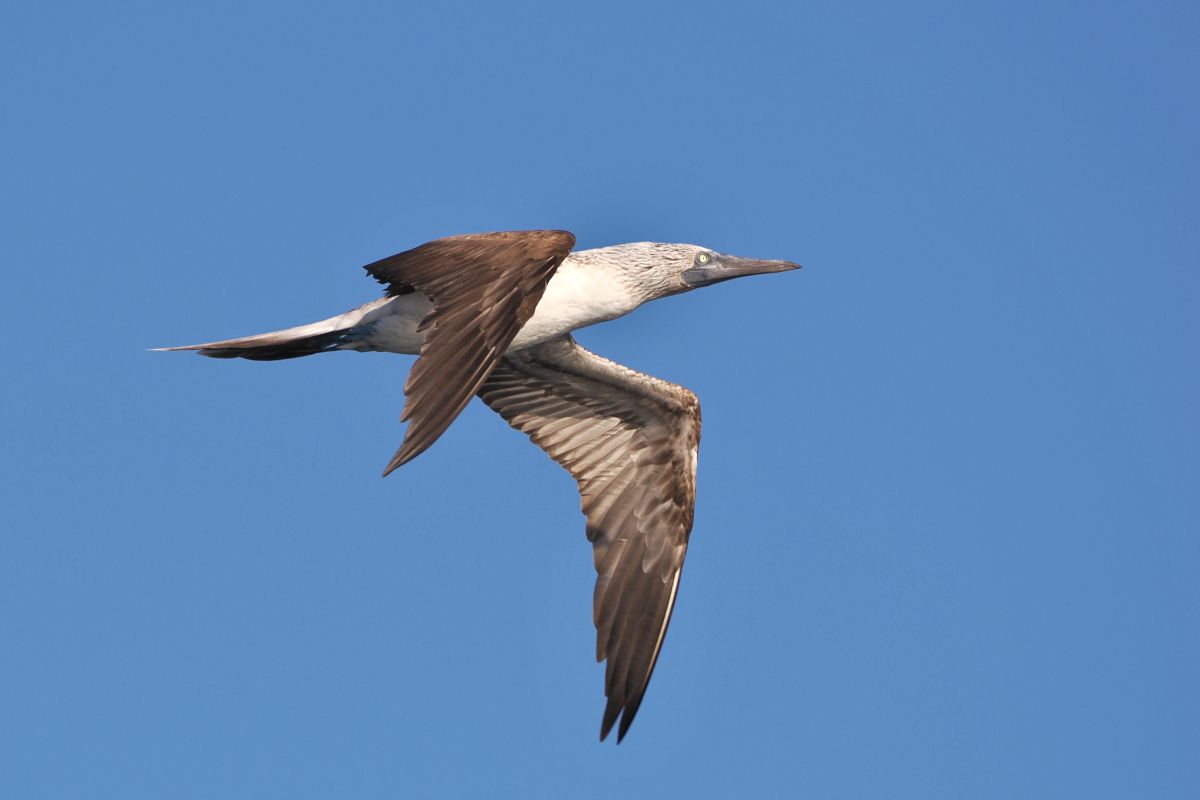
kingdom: Animalia
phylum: Chordata
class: Aves
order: Suliformes
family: Sulidae
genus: Sula
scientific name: Sula nebouxii
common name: Blue-footed booby
